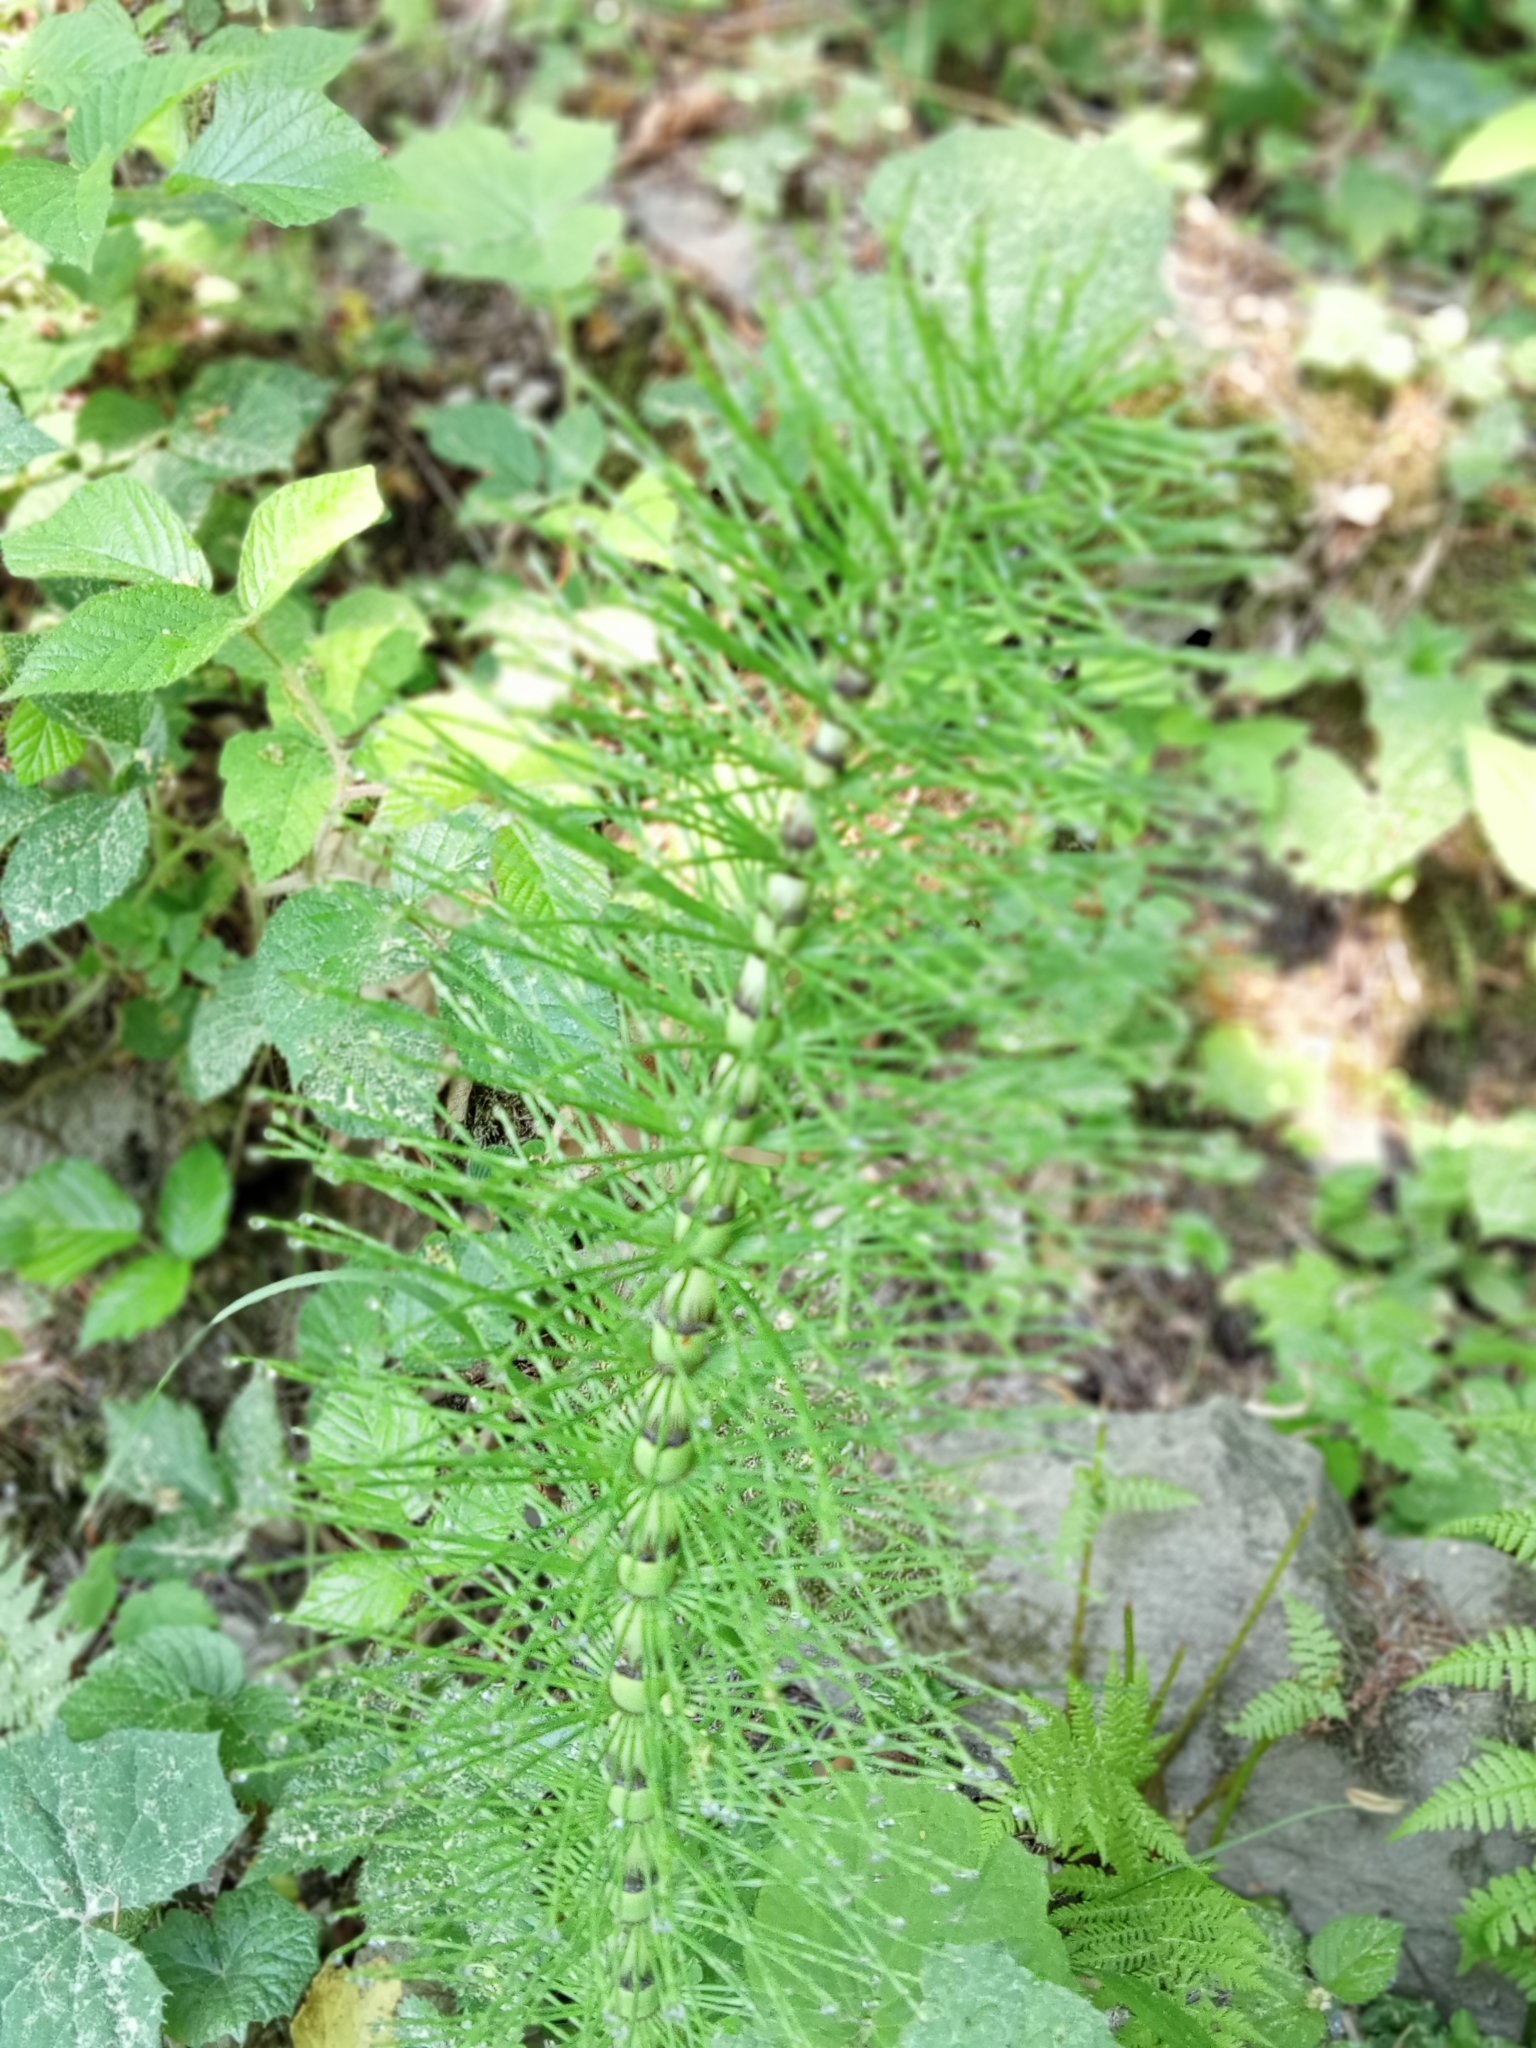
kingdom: Plantae
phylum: Tracheophyta
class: Polypodiopsida
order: Equisetales
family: Equisetaceae
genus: Equisetum
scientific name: Equisetum telmateia
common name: Great horsetail
